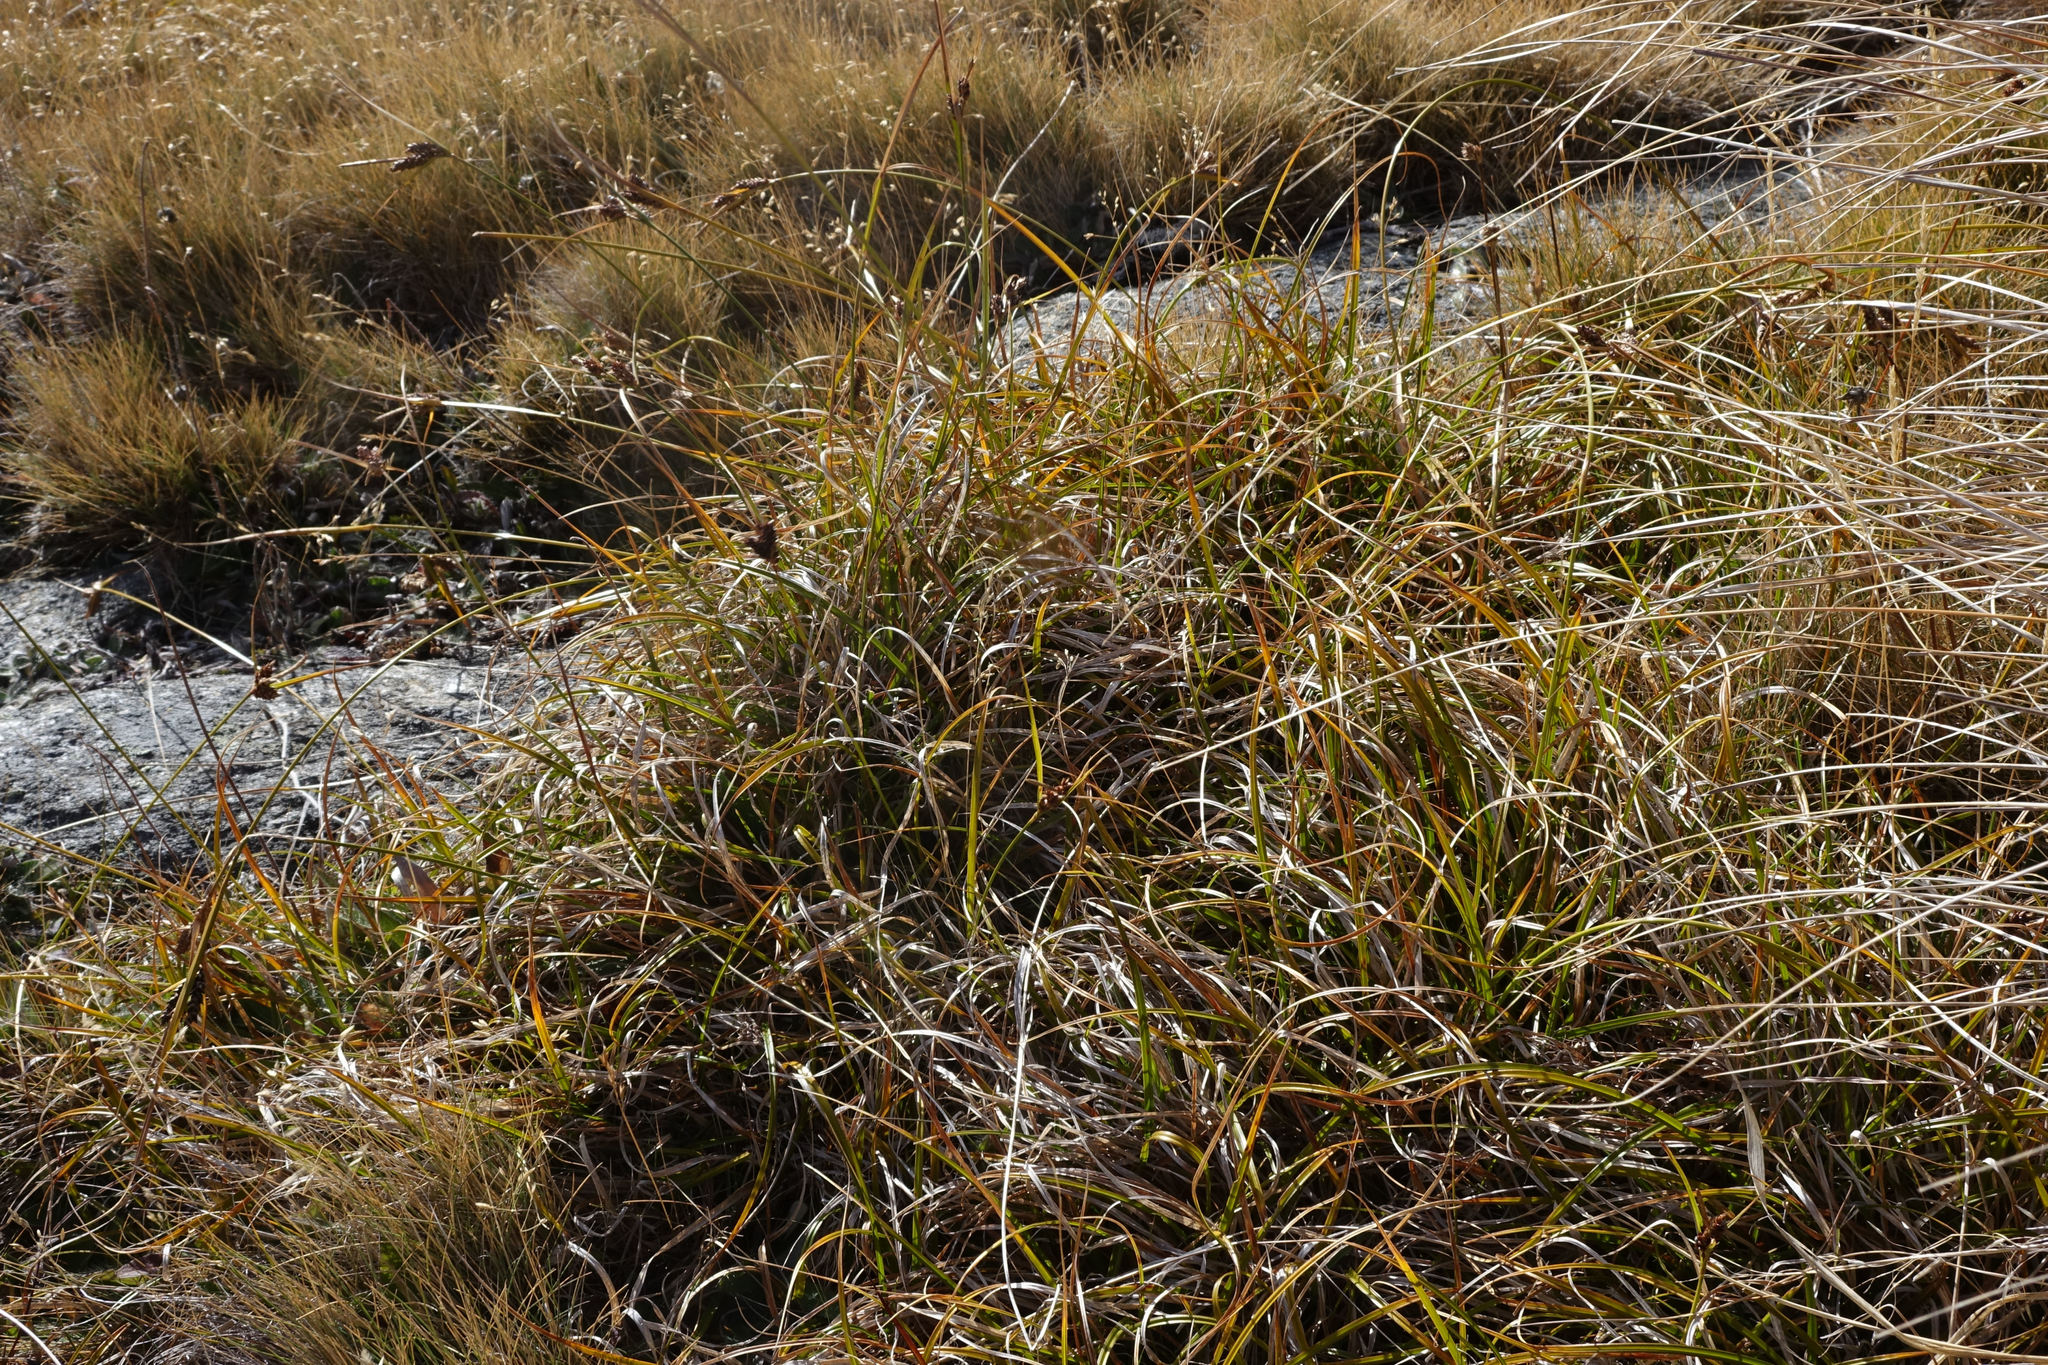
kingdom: Plantae
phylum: Tracheophyta
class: Liliopsida
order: Poales
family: Cyperaceae
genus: Carex
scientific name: Carex wakatipu
